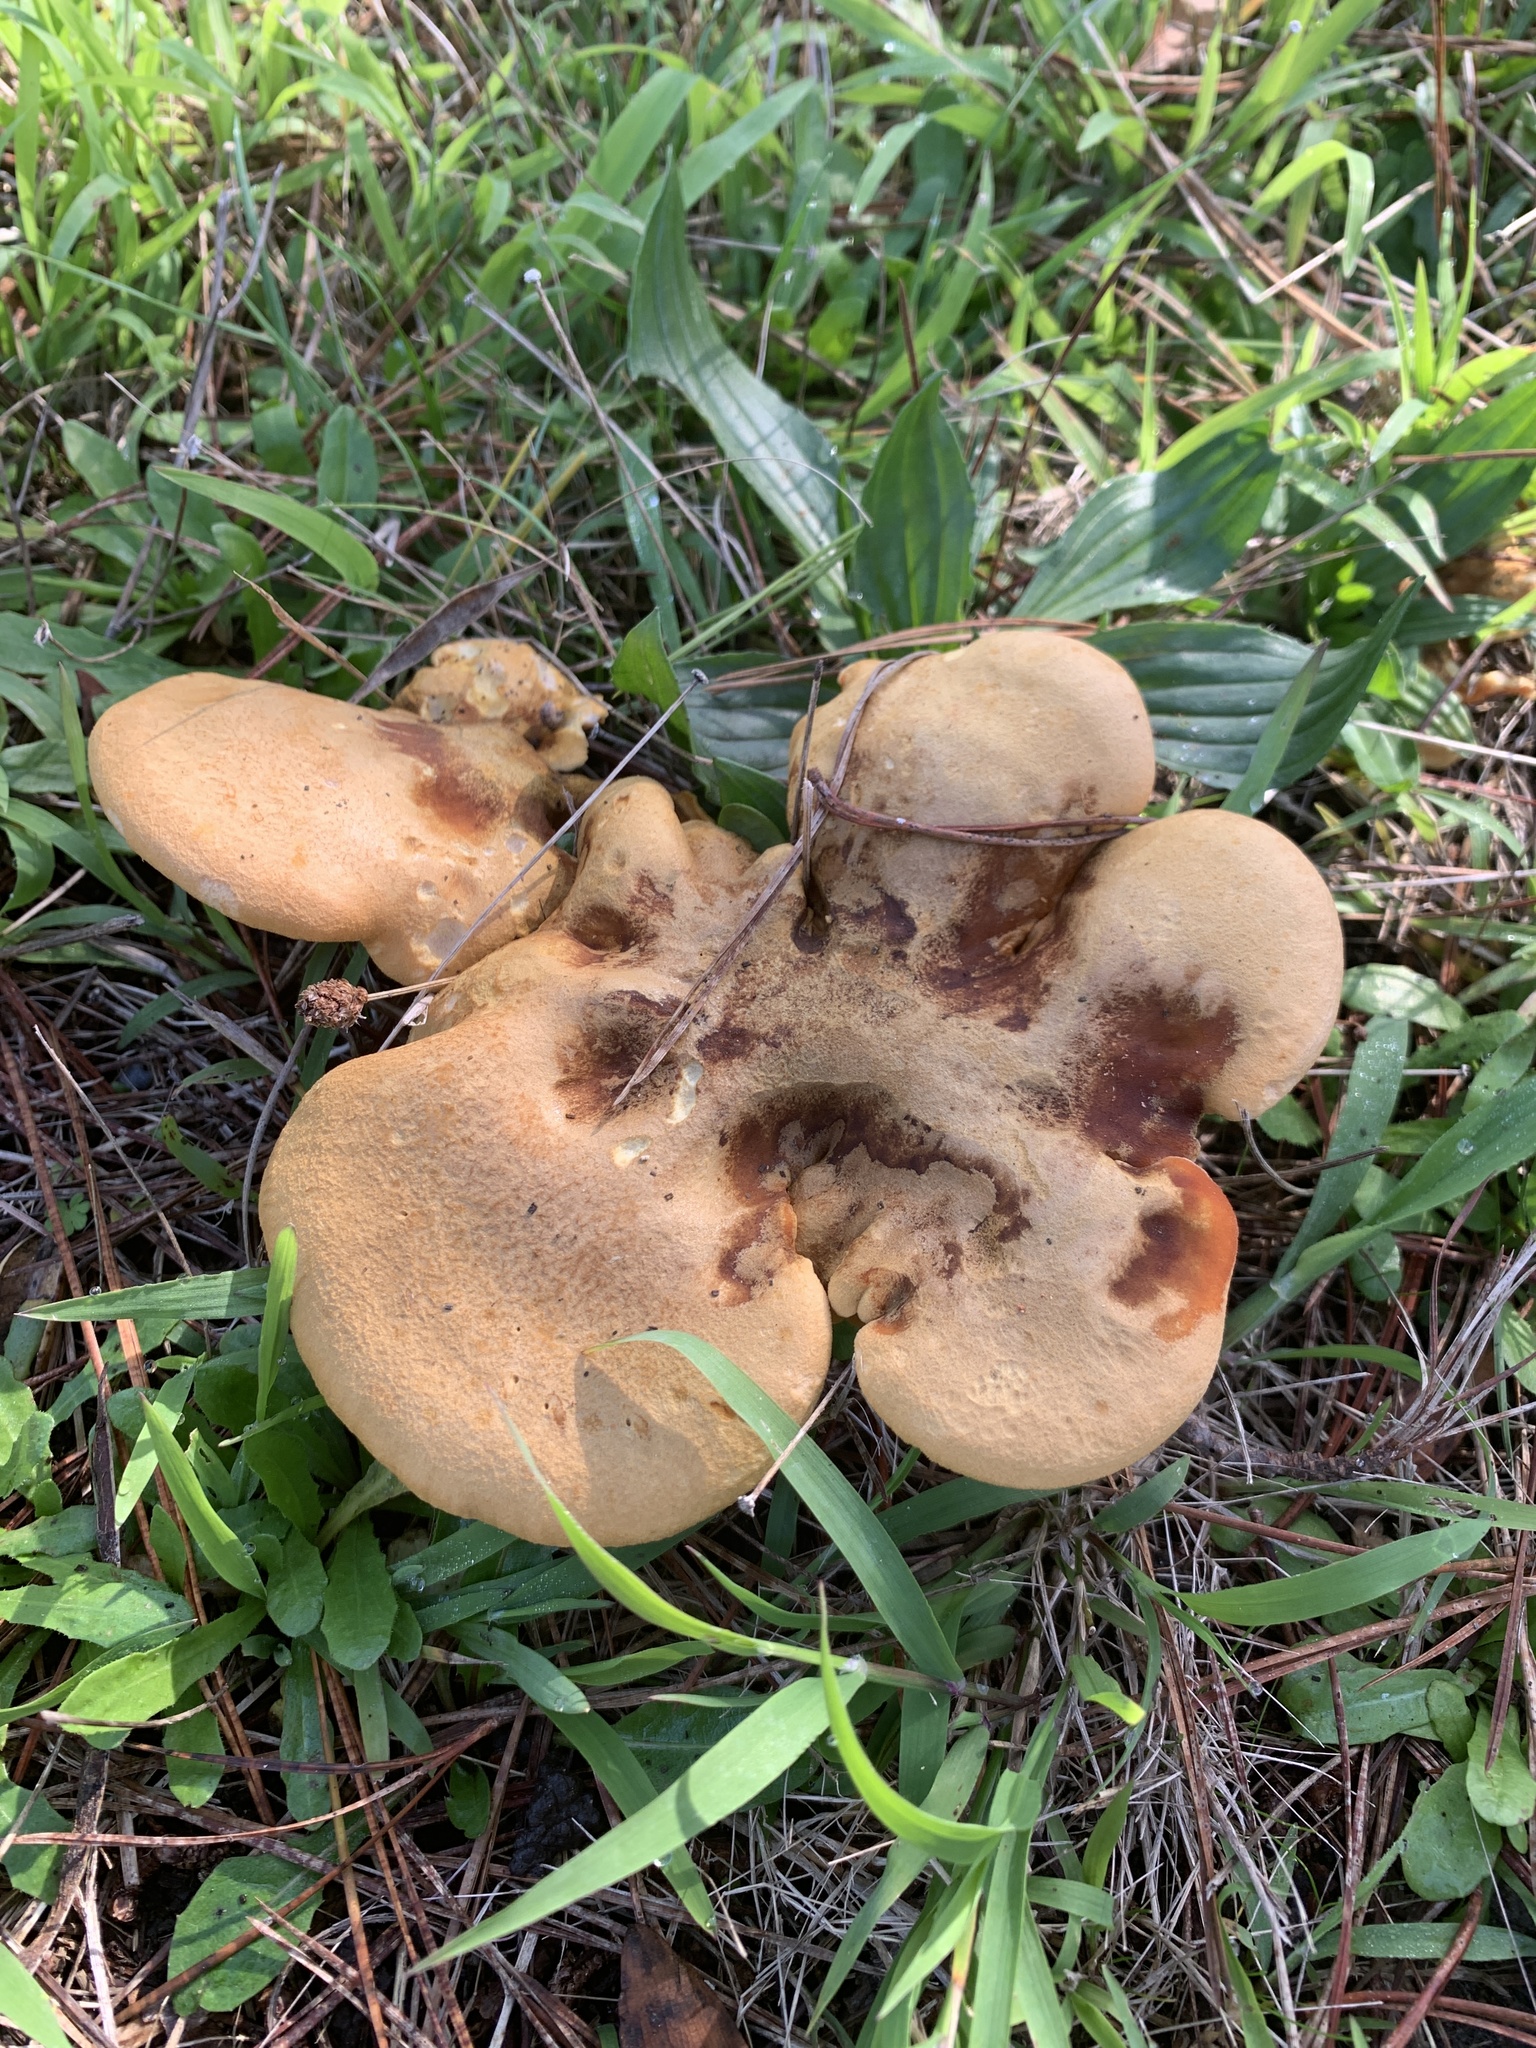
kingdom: Fungi
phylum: Basidiomycota
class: Agaricomycetes
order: Boletales
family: Hygrophoropsidaceae
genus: Hygrophoropsis
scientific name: Hygrophoropsis aurantiaca
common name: False chanterelle
